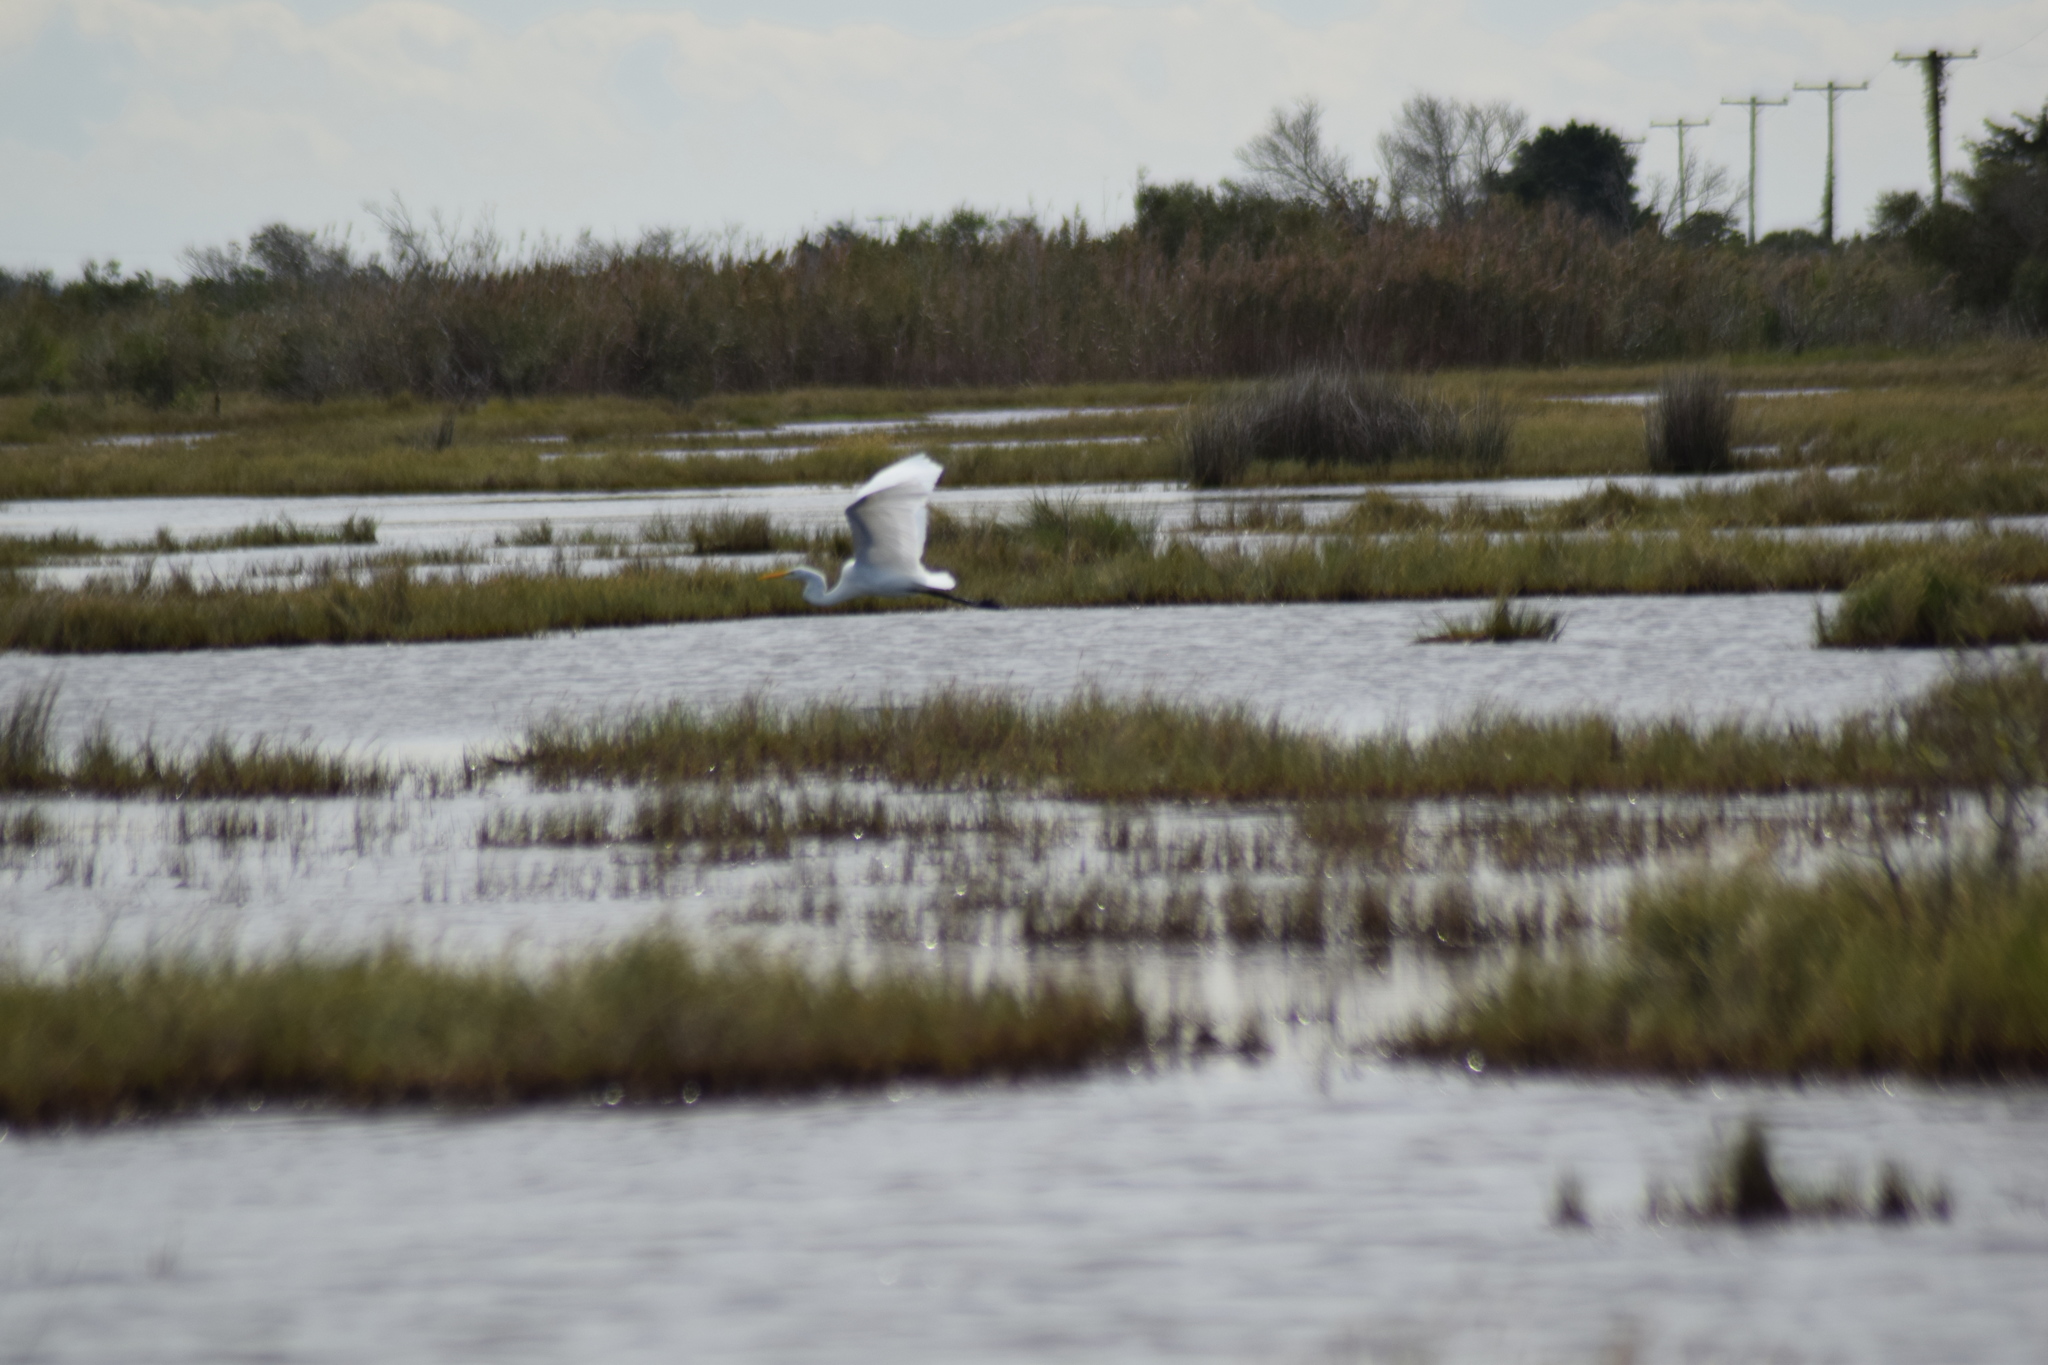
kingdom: Animalia
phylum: Chordata
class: Aves
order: Pelecaniformes
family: Ardeidae
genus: Ardea
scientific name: Ardea alba
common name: Great egret
